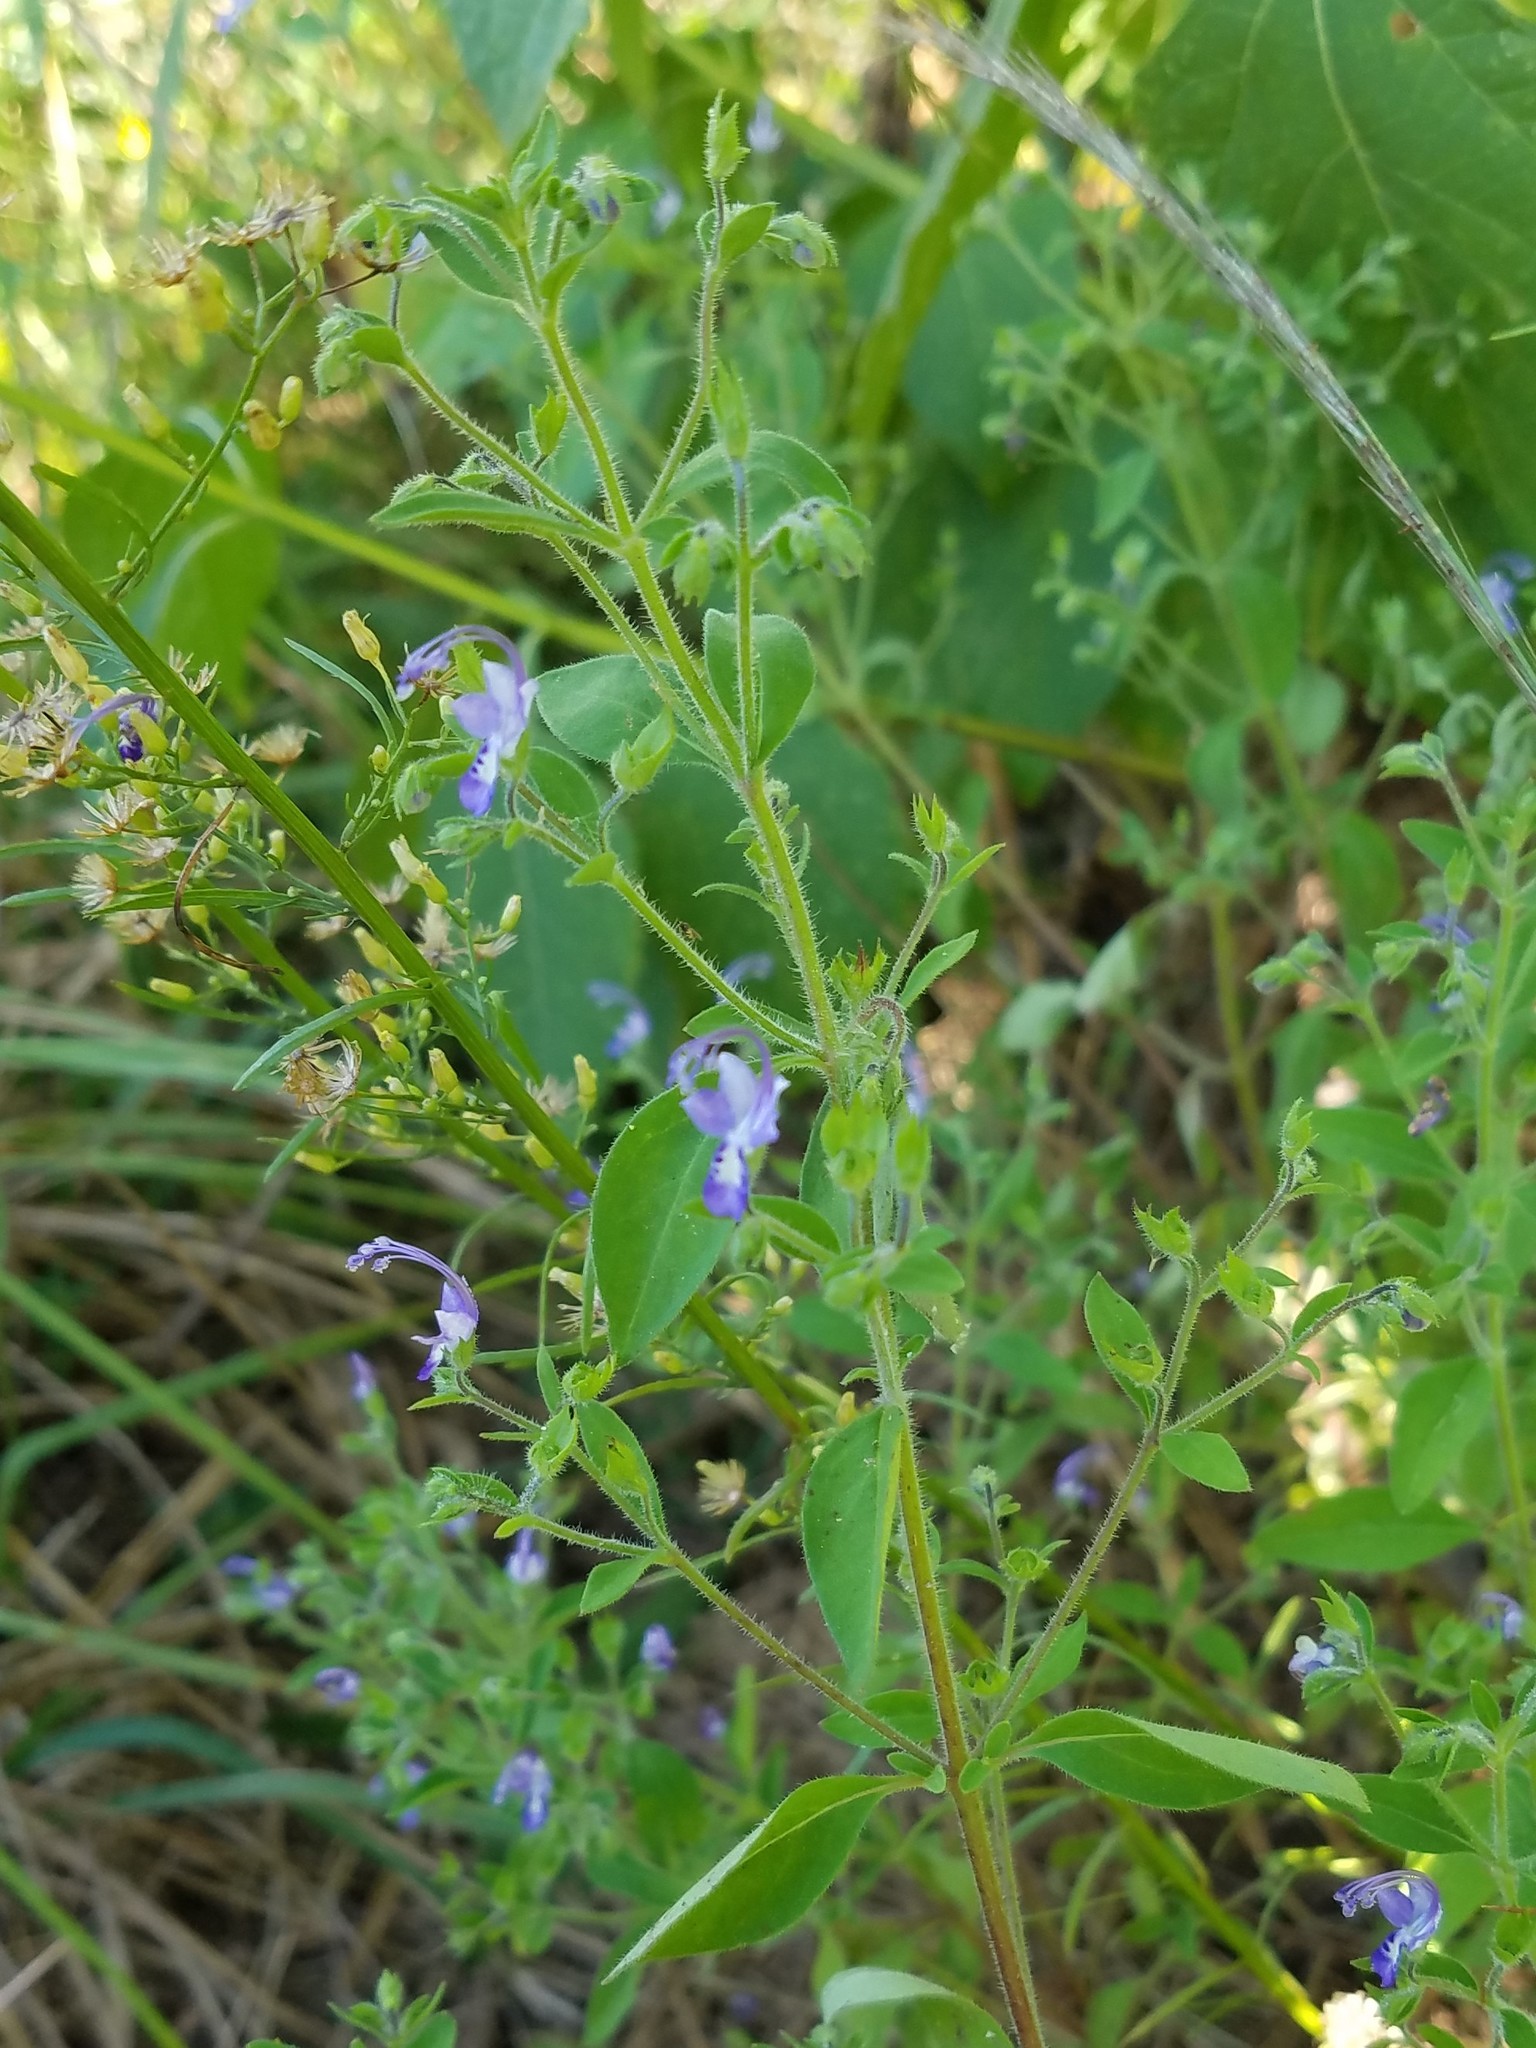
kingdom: Plantae
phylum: Tracheophyta
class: Magnoliopsida
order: Lamiales
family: Lamiaceae
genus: Trichostema
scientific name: Trichostema dichotomum
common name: Bastard pennyroyal
